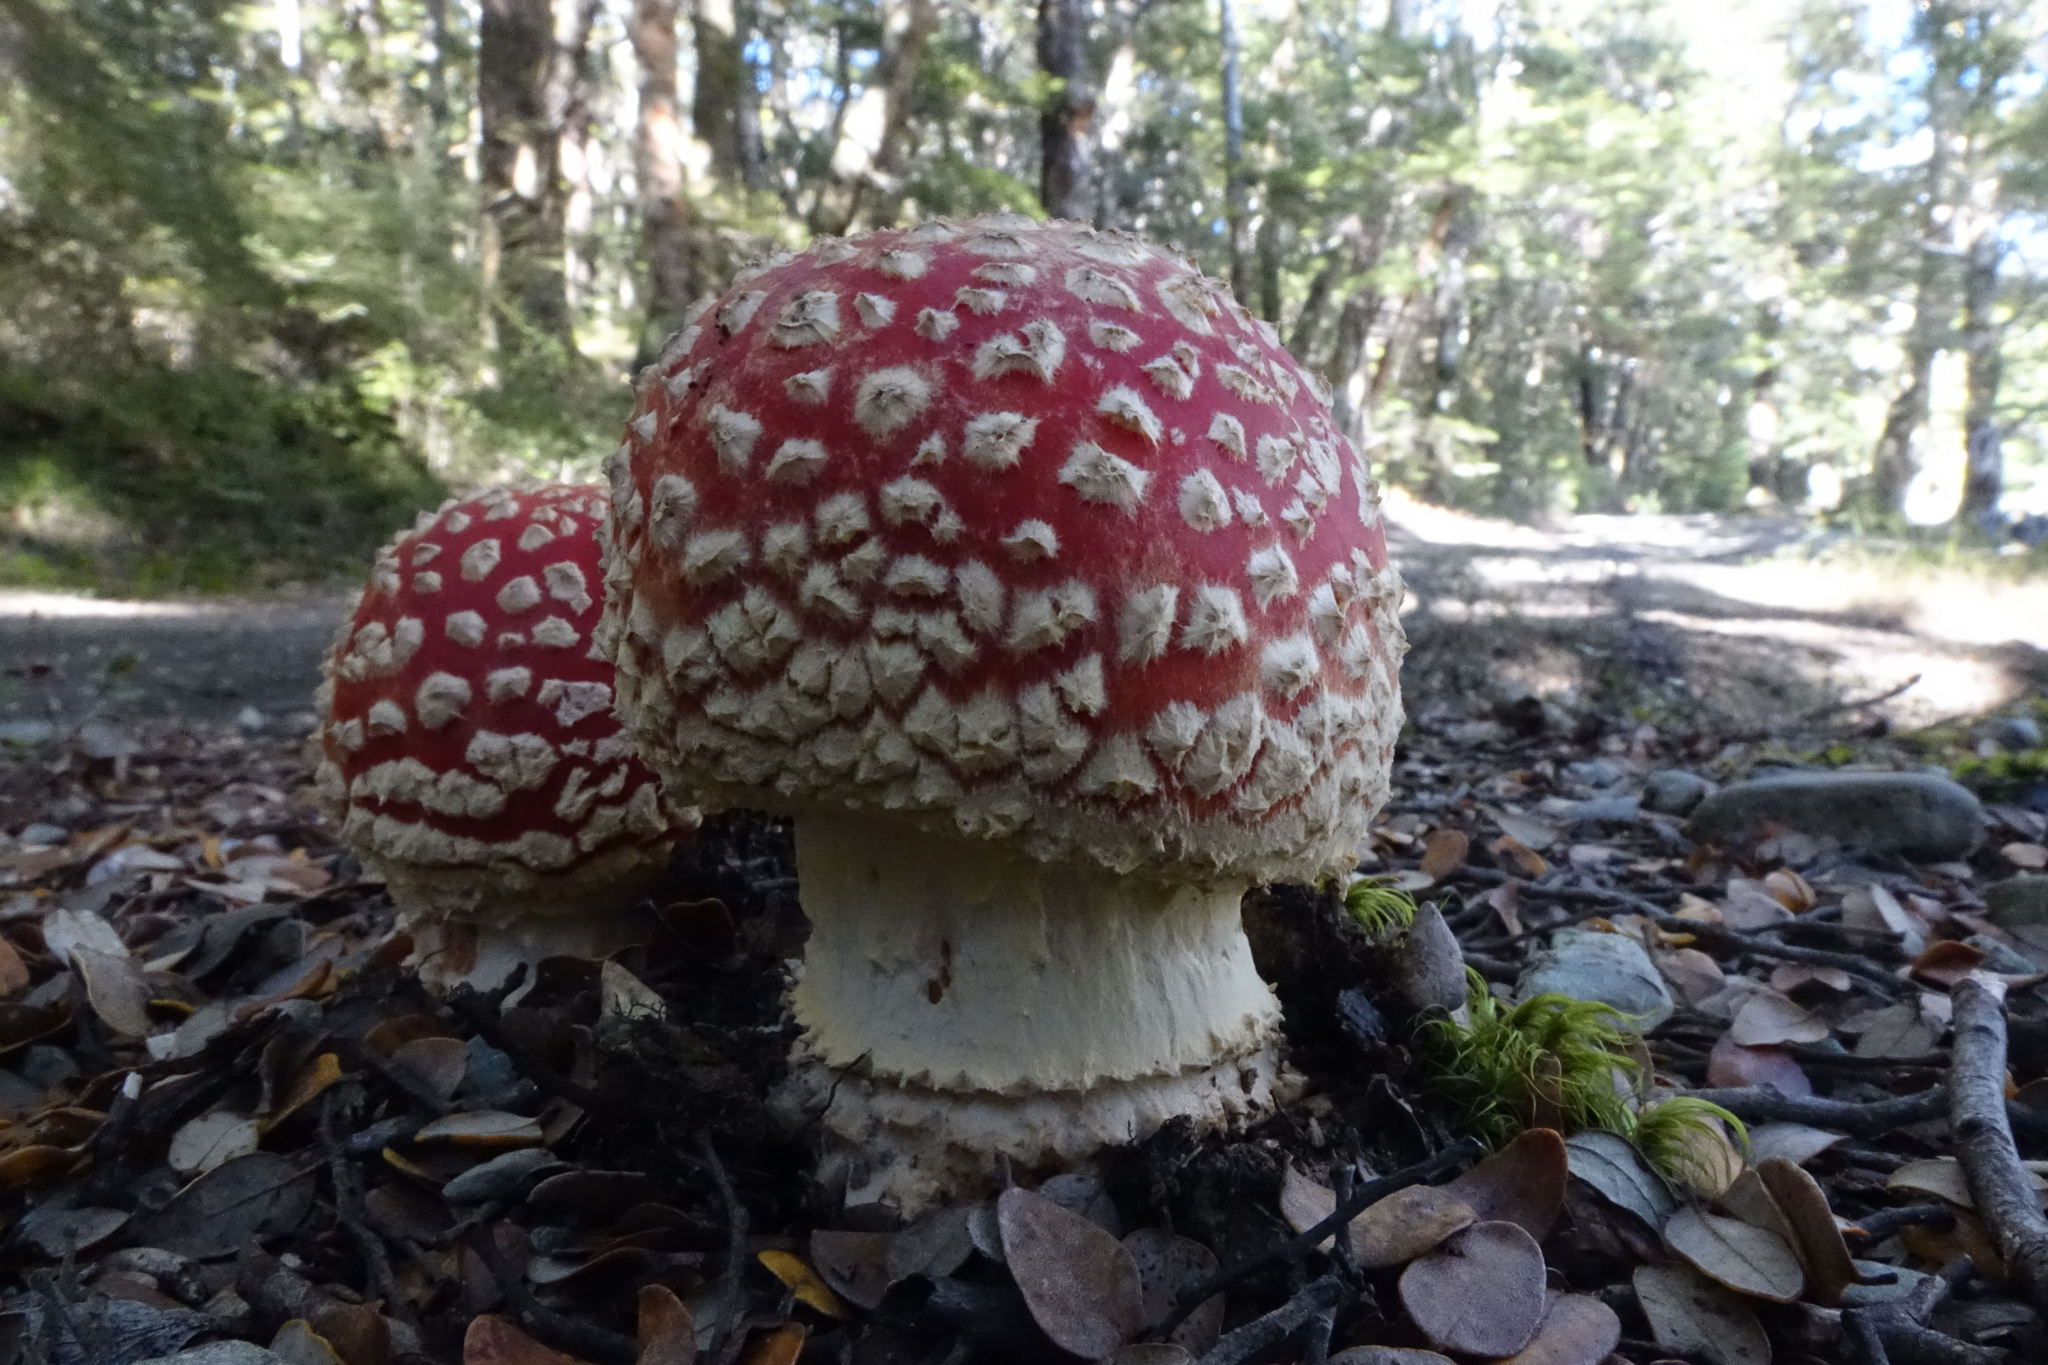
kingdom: Fungi
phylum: Basidiomycota
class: Agaricomycetes
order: Agaricales
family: Amanitaceae
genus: Amanita
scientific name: Amanita muscaria
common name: Fly agaric
